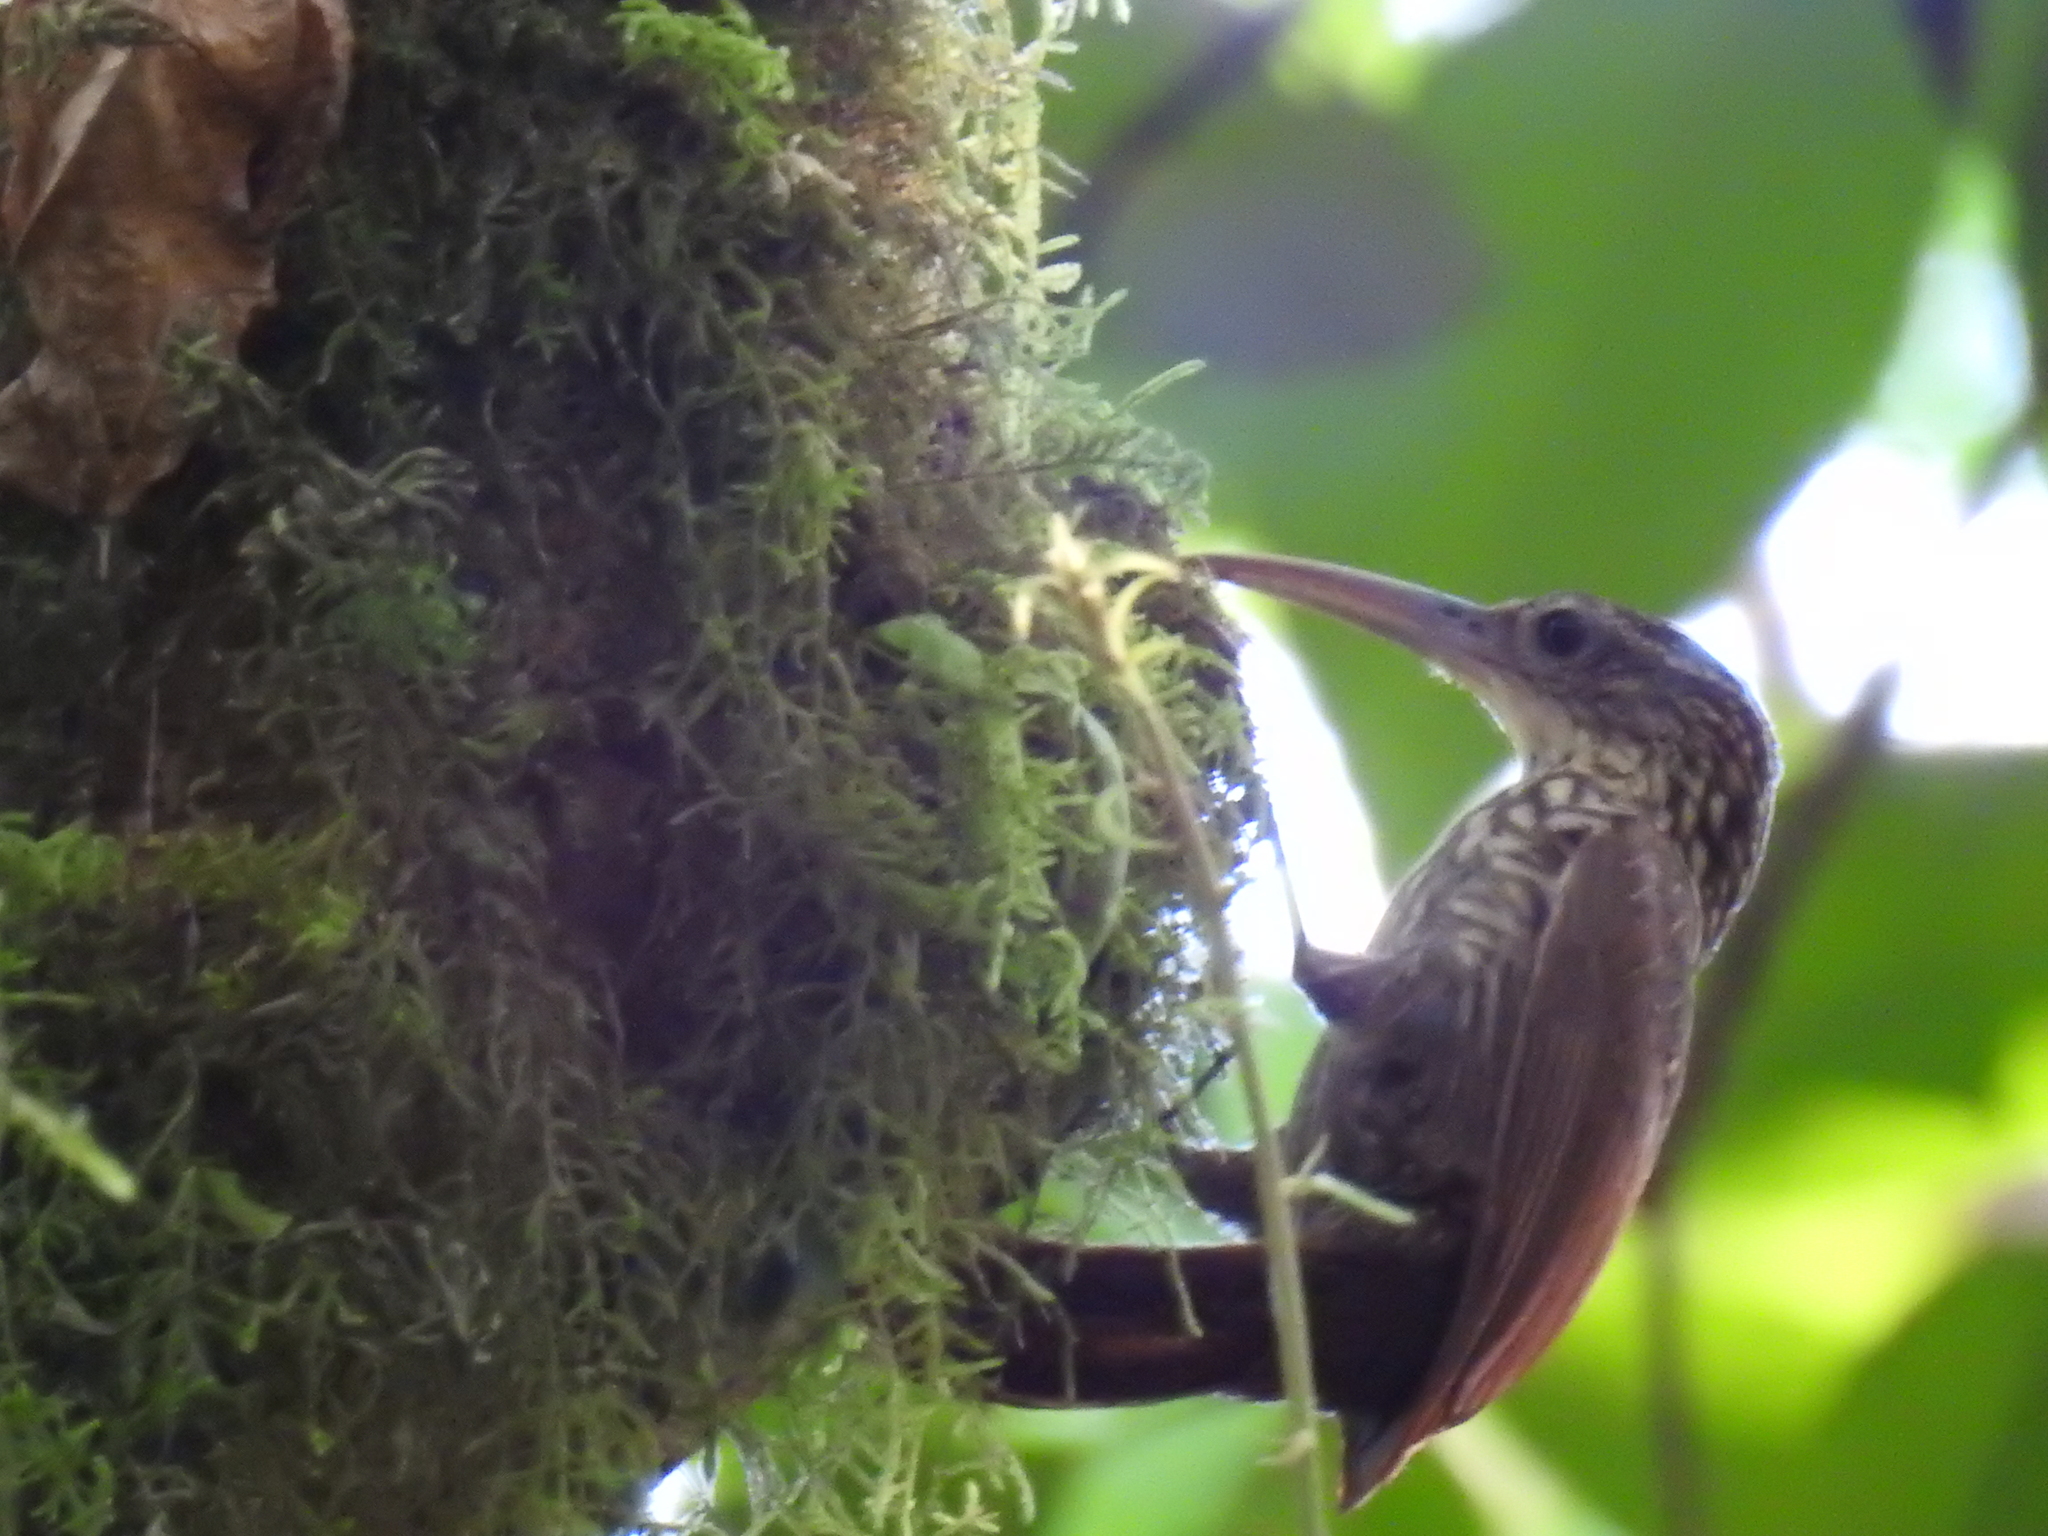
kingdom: Animalia
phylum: Chordata
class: Aves
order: Passeriformes
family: Furnariidae
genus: Xiphorhynchus
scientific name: Xiphorhynchus flavigaster
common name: Ivory-billed woodcreeper
